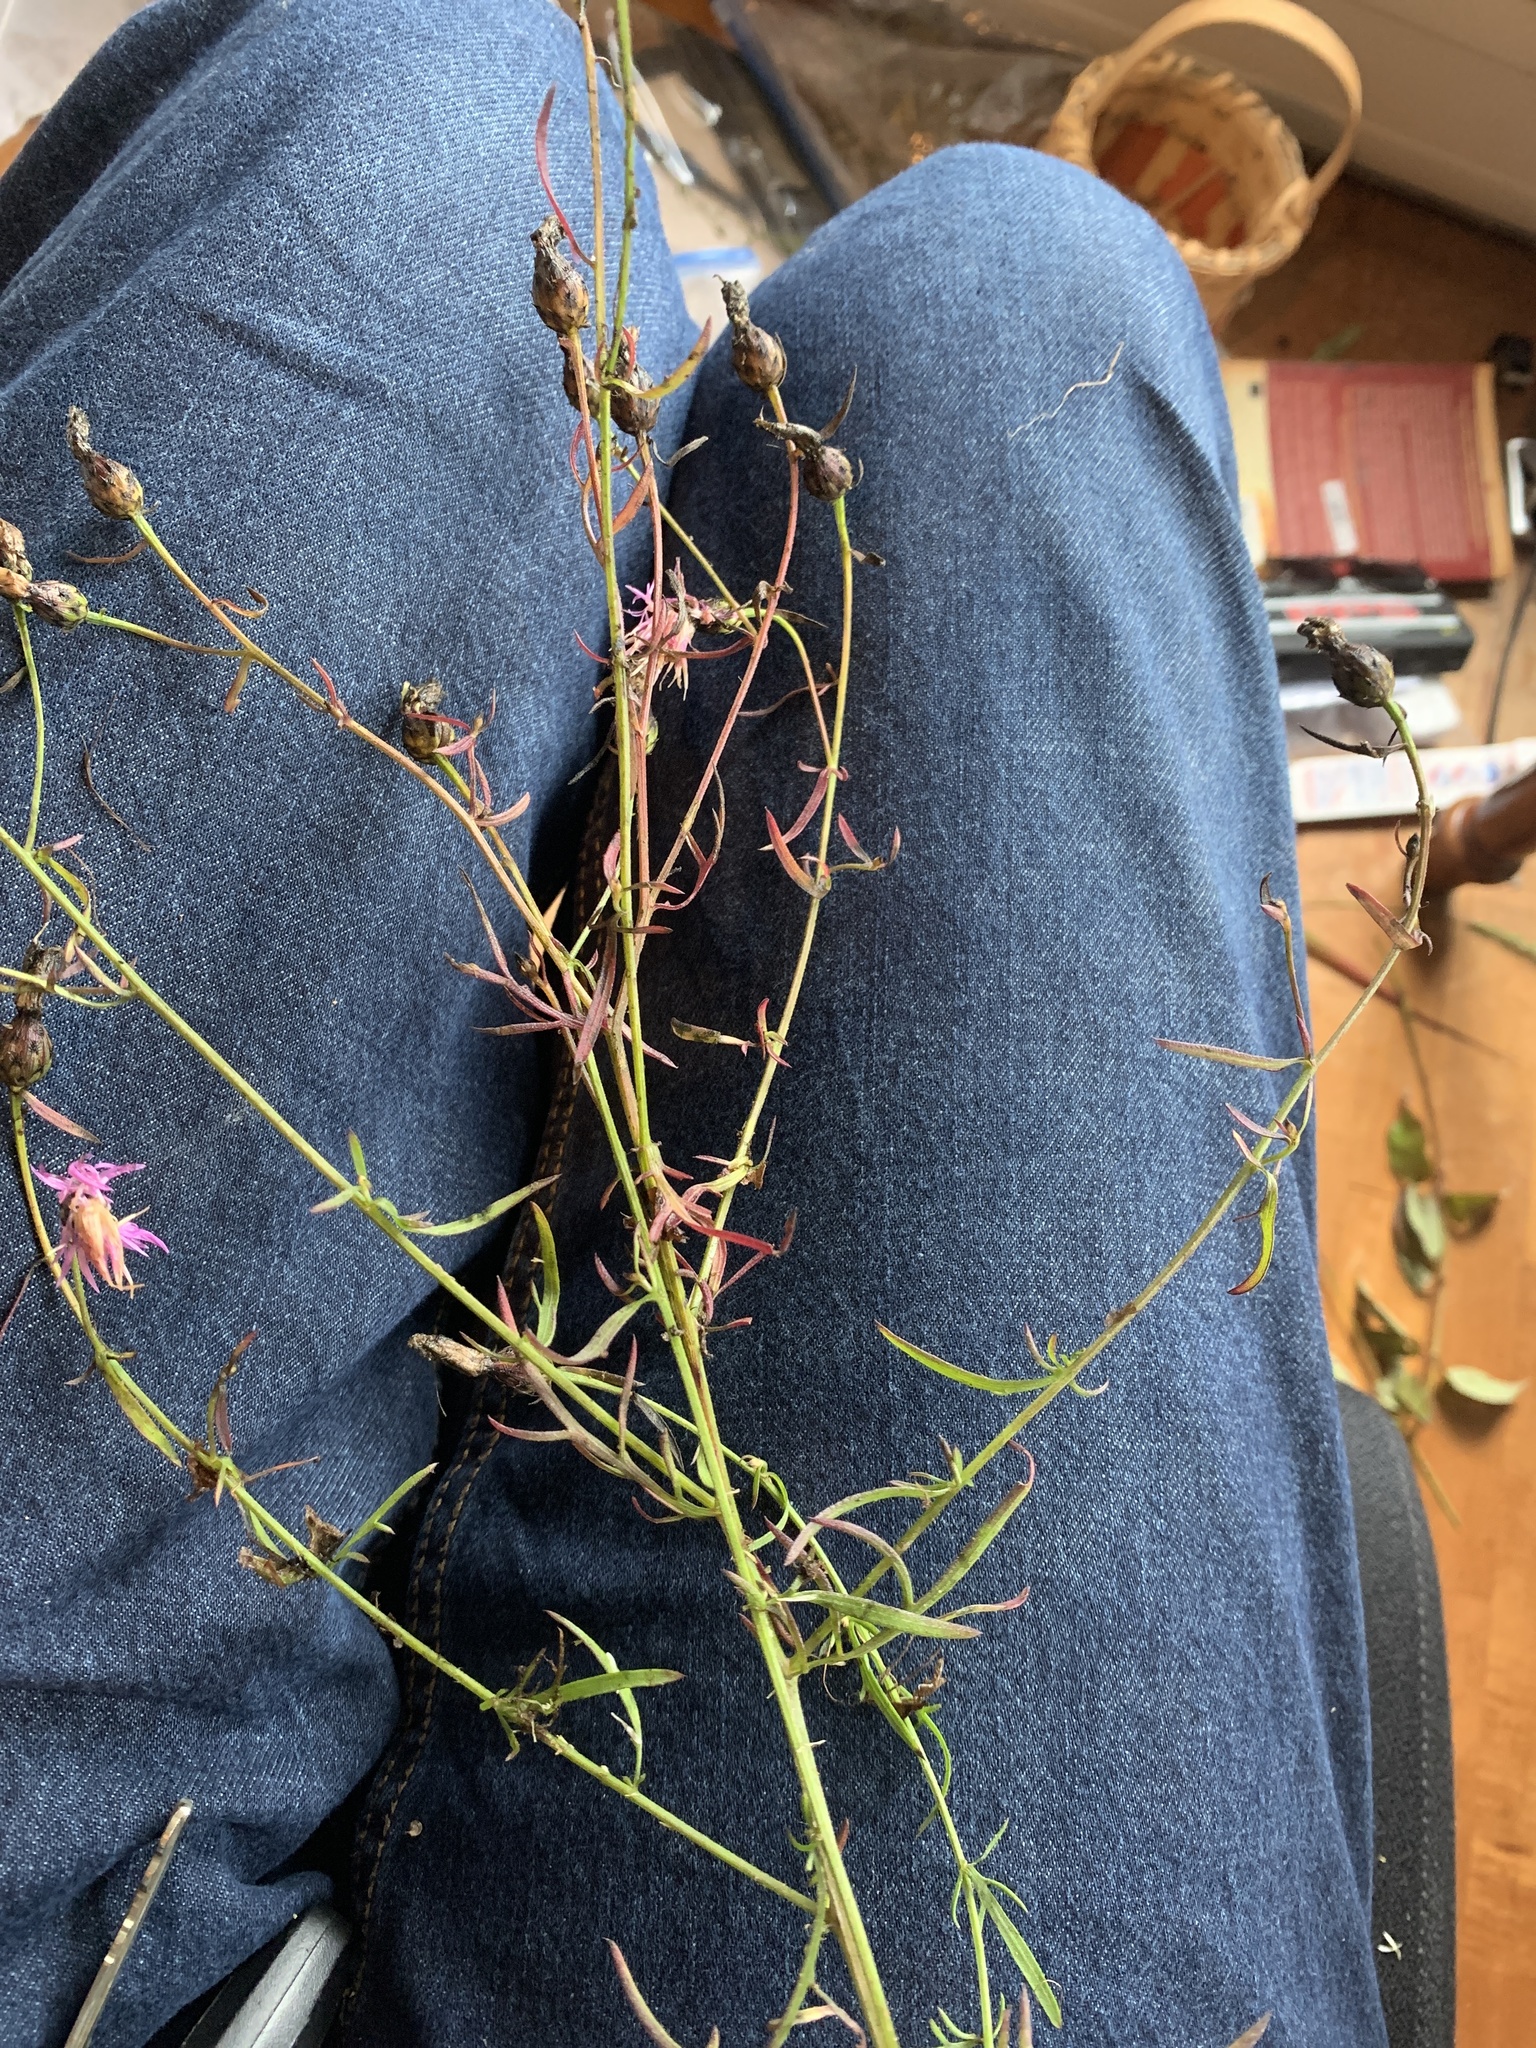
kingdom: Plantae
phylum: Tracheophyta
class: Magnoliopsida
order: Asterales
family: Asteraceae
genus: Centaurea
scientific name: Centaurea stoebe
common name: Spotted knapweed
